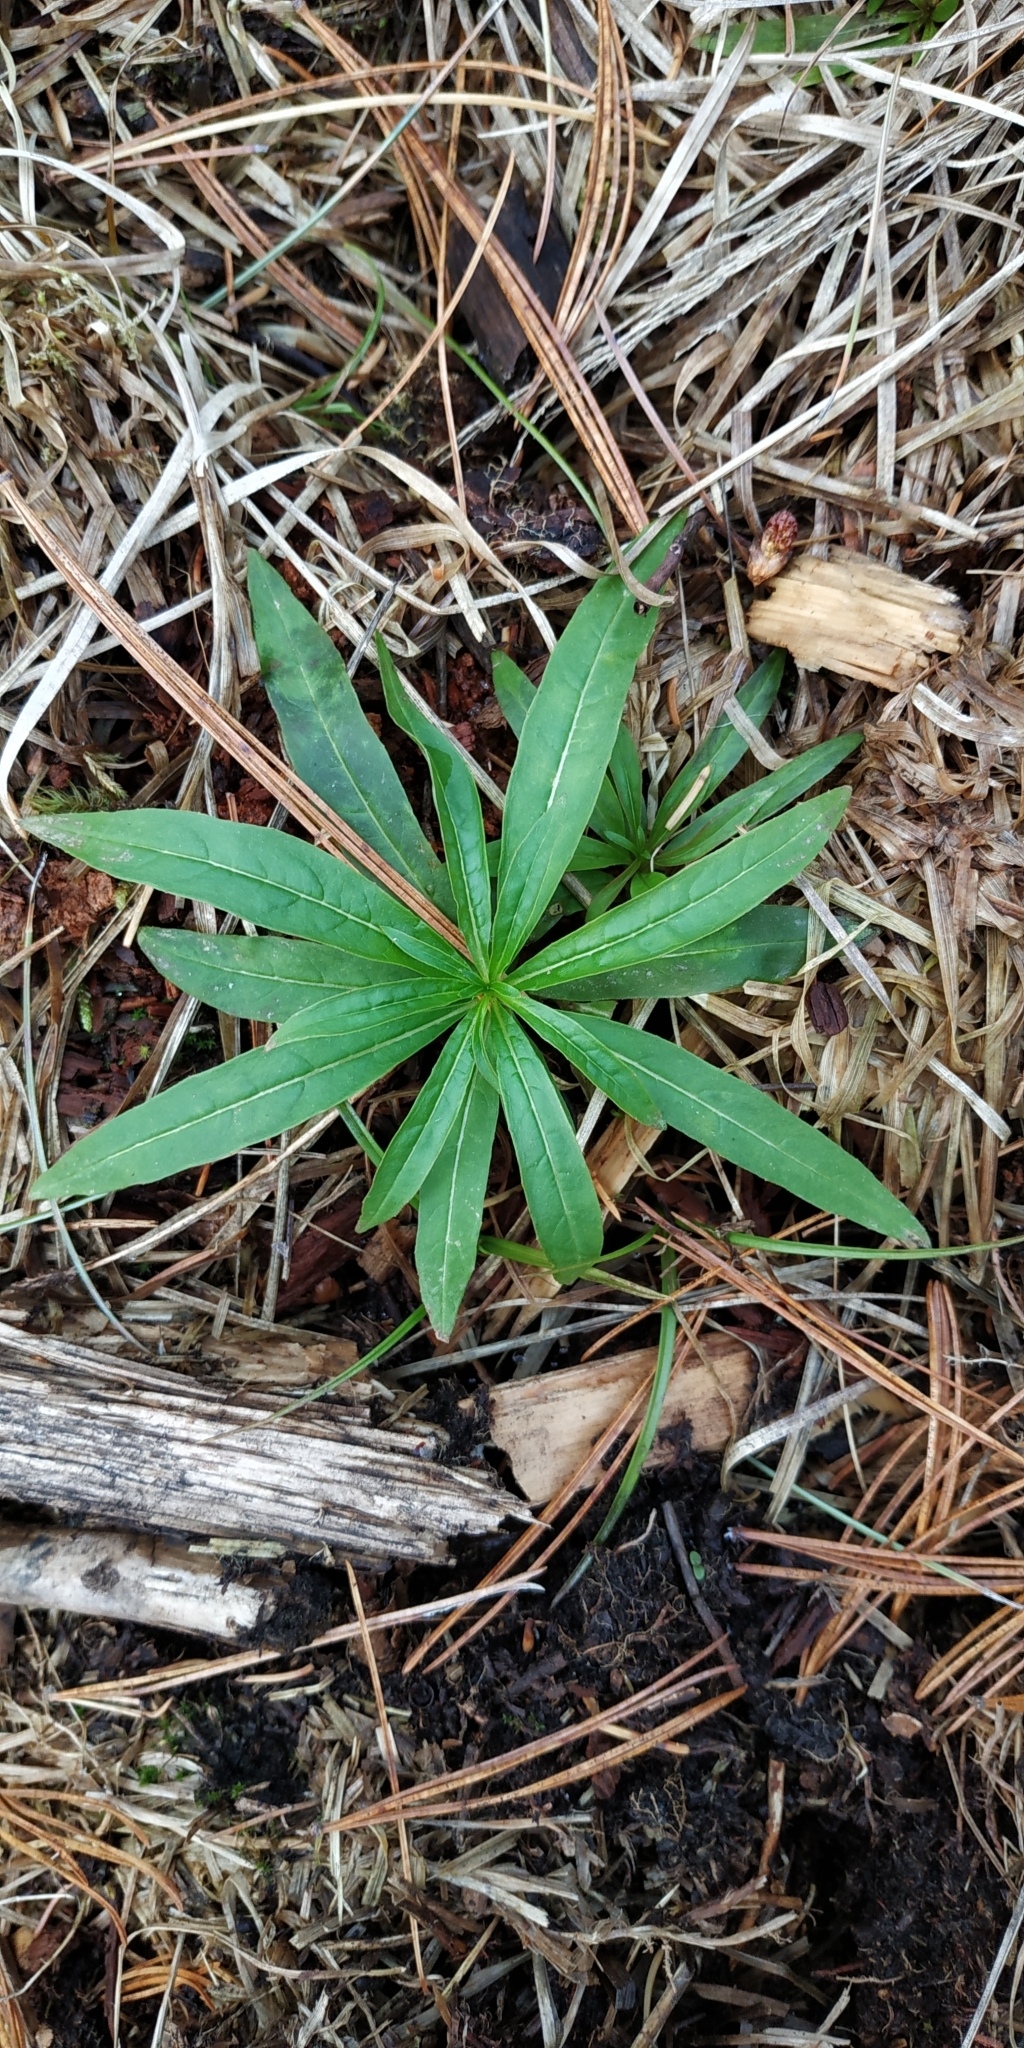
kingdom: Plantae
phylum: Tracheophyta
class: Magnoliopsida
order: Myrtales
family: Onagraceae
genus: Chamaenerion
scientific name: Chamaenerion angustifolium
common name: Fireweed
